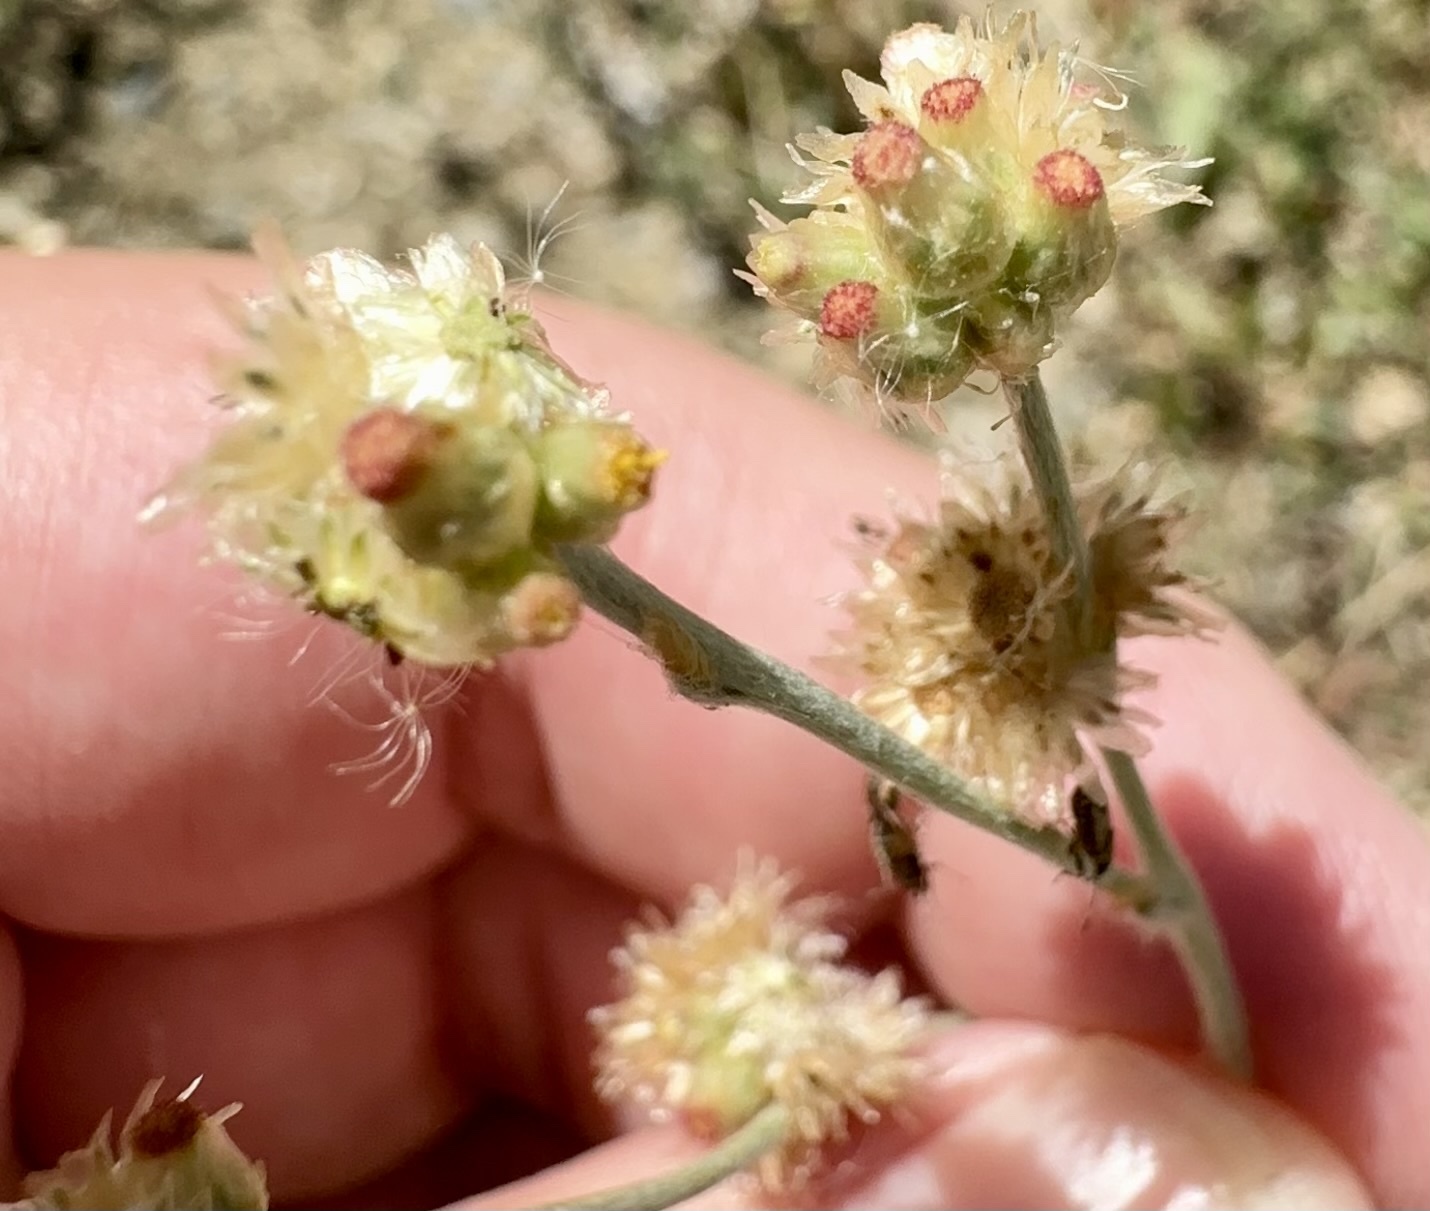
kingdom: Plantae
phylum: Tracheophyta
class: Magnoliopsida
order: Asterales
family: Asteraceae
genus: Helichrysum
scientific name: Helichrysum luteoalbum
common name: Daisy
